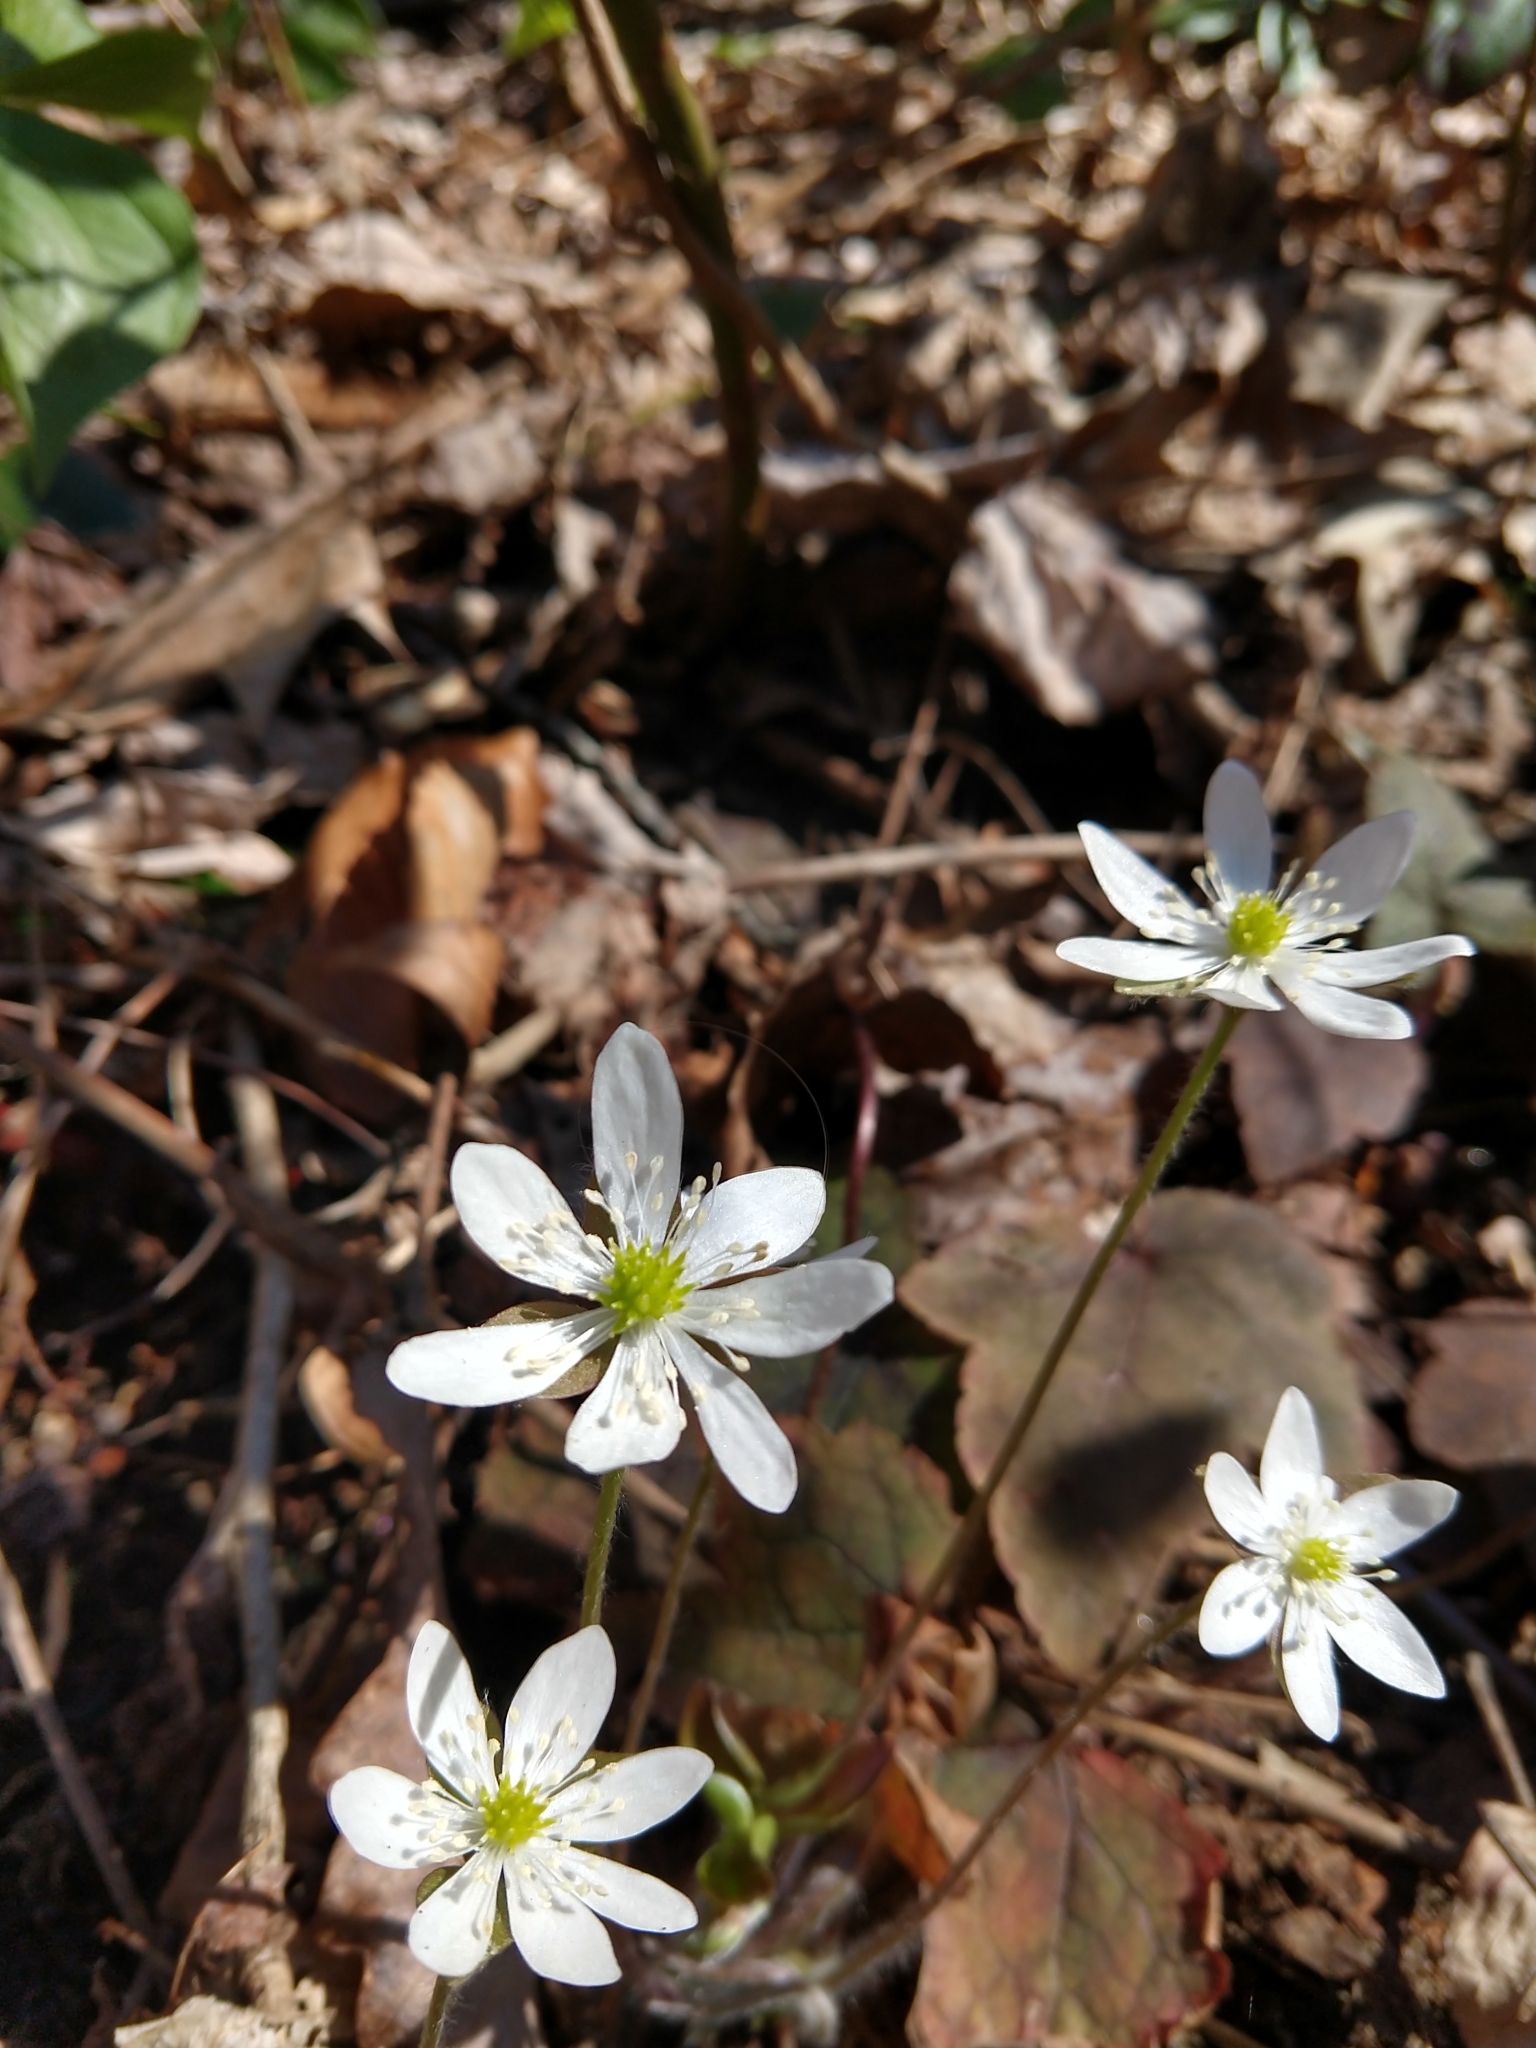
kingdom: Plantae
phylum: Tracheophyta
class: Magnoliopsida
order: Ranunculales
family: Ranunculaceae
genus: Hepatica
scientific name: Hepatica acutiloba
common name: Sharp-lobed hepatica
